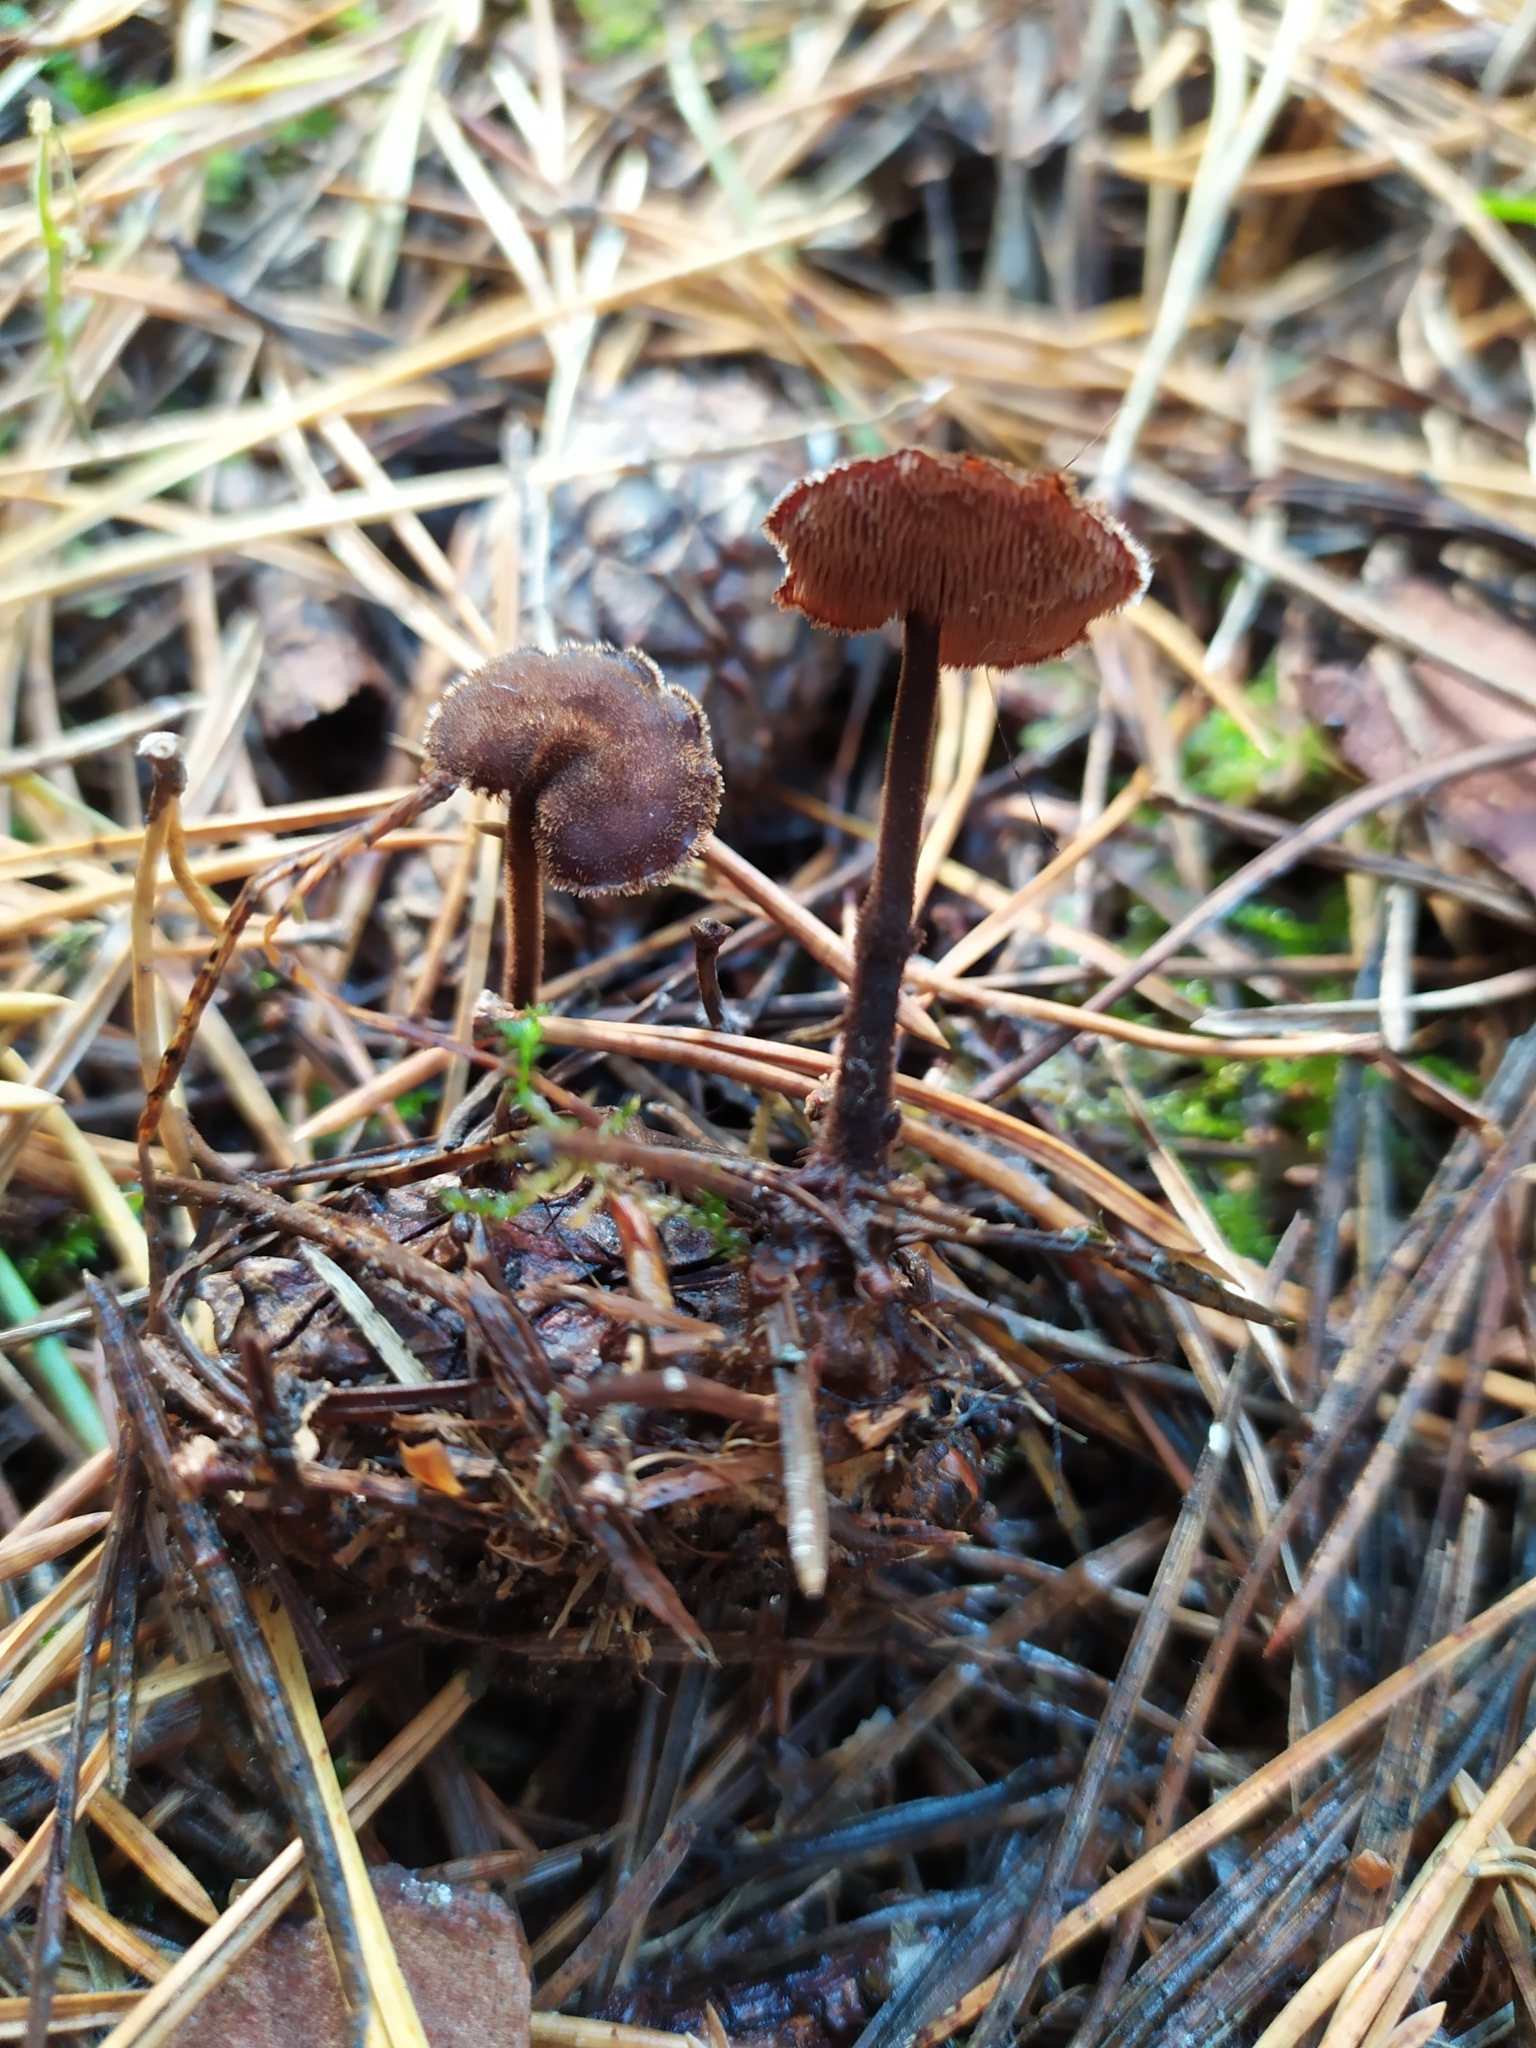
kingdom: Fungi
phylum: Basidiomycota
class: Agaricomycetes
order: Russulales
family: Auriscalpiaceae
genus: Auriscalpium
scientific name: Auriscalpium vulgare
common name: Earpick fungus
